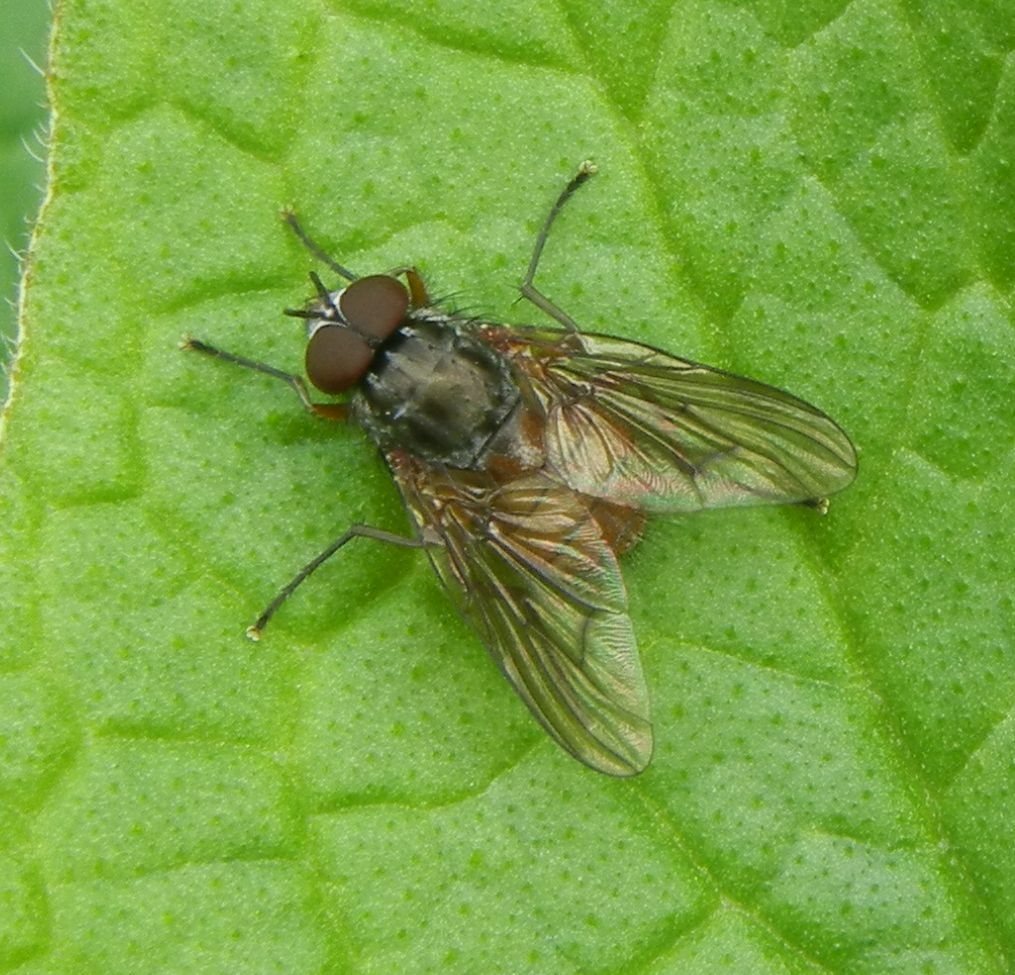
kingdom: Animalia
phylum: Arthropoda
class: Insecta
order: Diptera
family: Muscidae
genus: Phaonia
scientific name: Phaonia subventa
